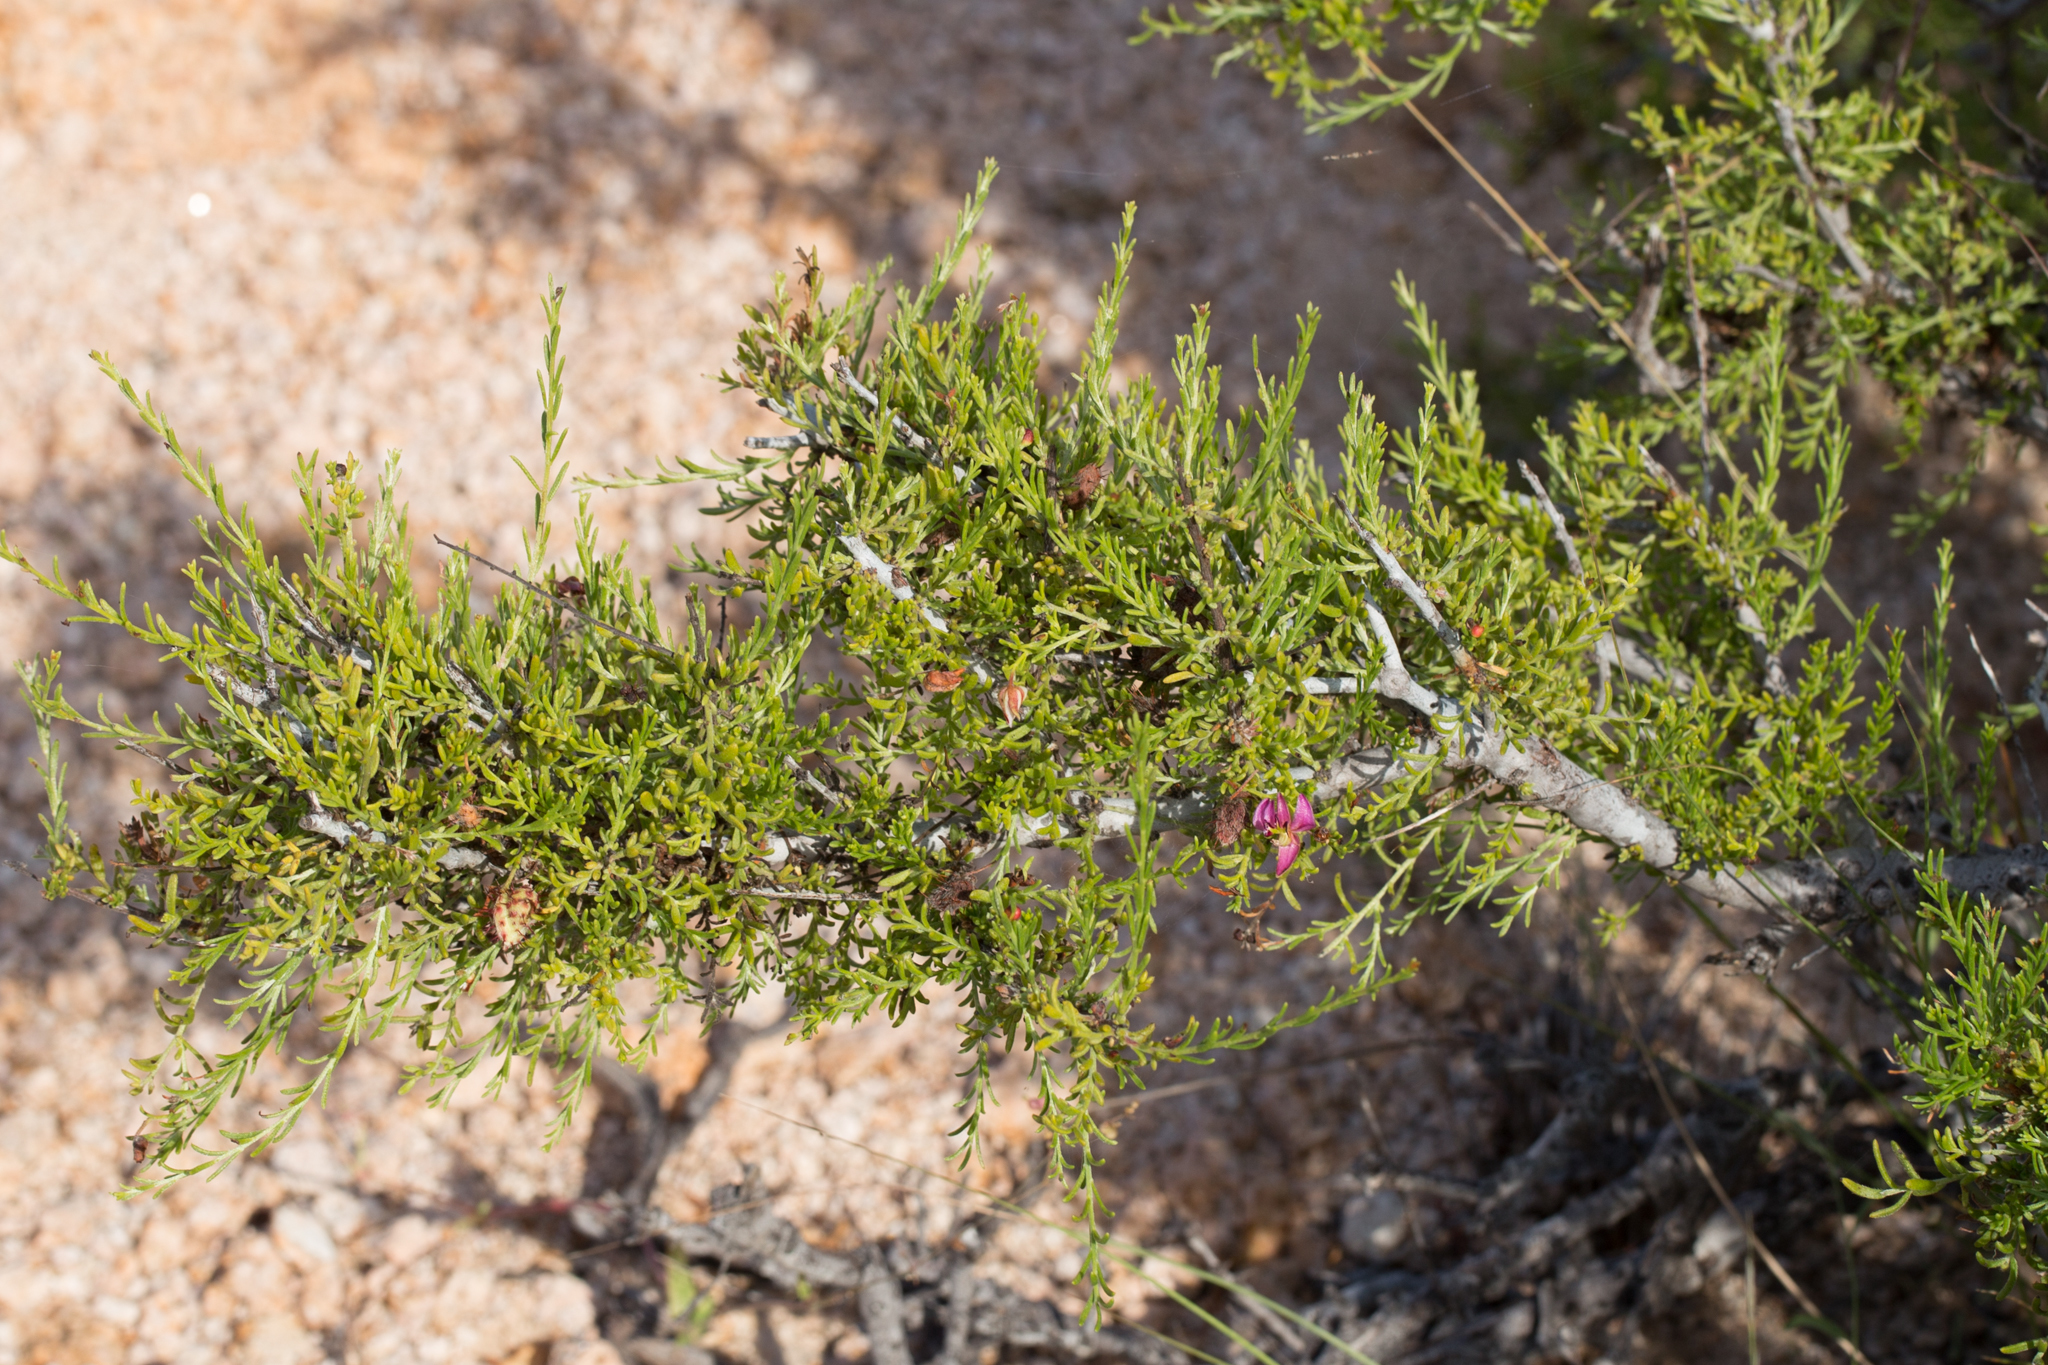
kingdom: Plantae
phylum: Tracheophyta
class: Magnoliopsida
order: Zygophyllales
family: Krameriaceae
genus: Krameria
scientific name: Krameria erecta
